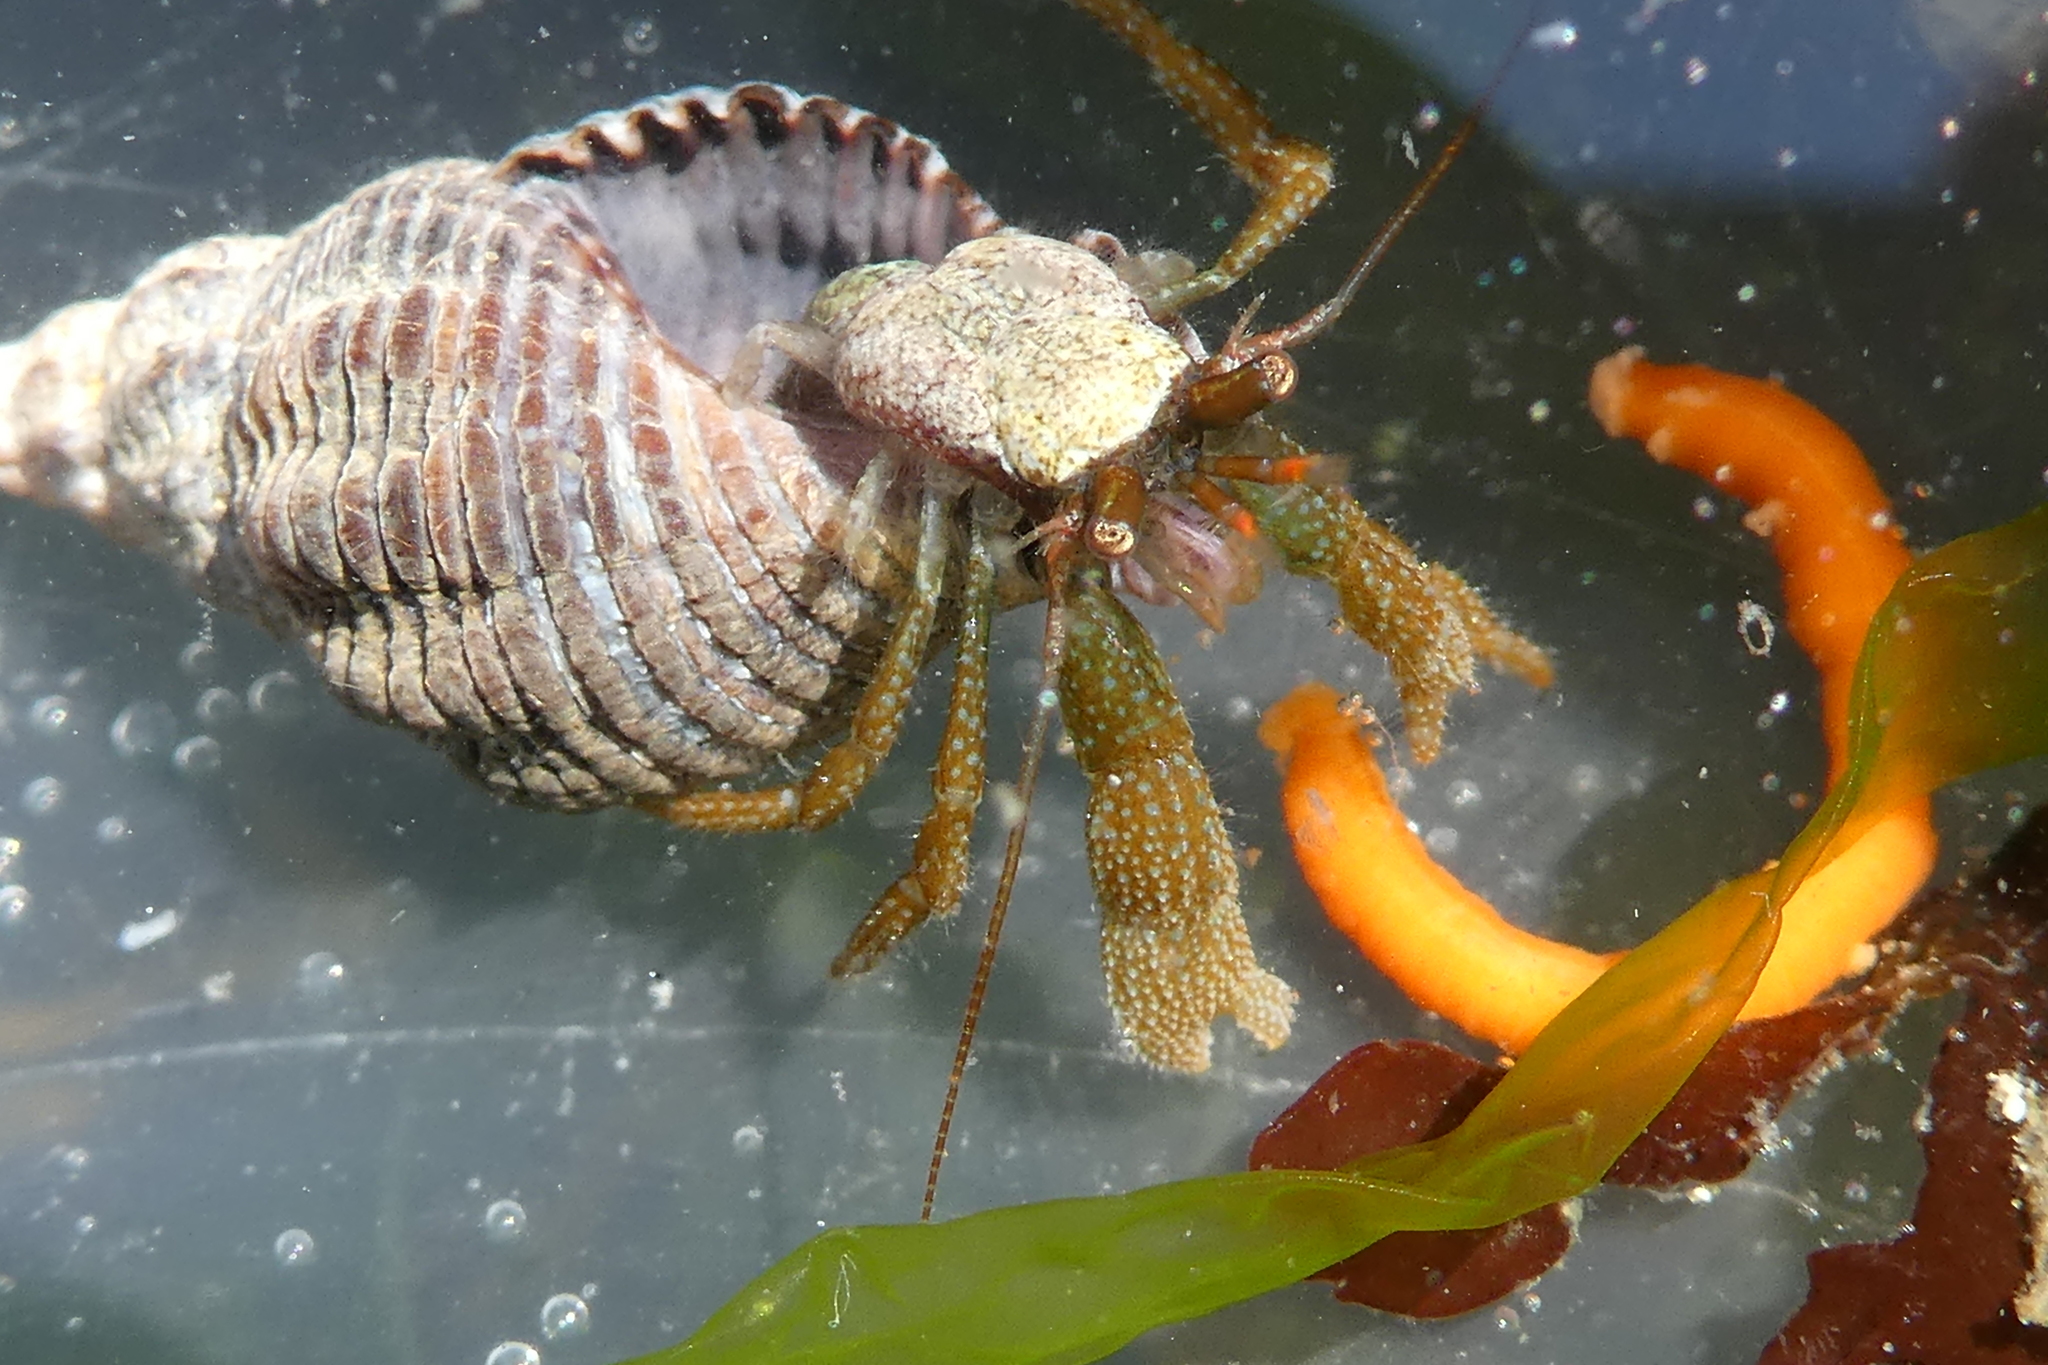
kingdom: Animalia
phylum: Arthropoda
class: Malacostraca
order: Decapoda
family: Paguridae
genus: Pagurus
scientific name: Pagurus granosimanus
